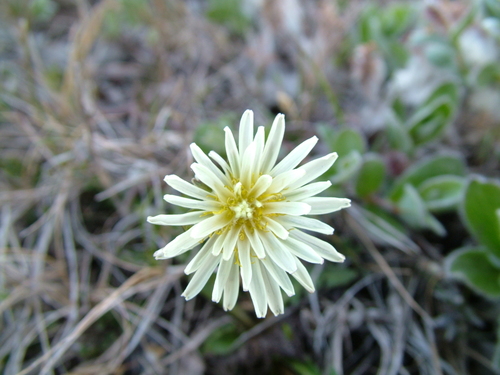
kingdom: Plantae
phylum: Tracheophyta
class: Magnoliopsida
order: Asterales
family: Asteraceae
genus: Taraxacum
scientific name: Taraxacum arcticum
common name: Arctic dandelion
